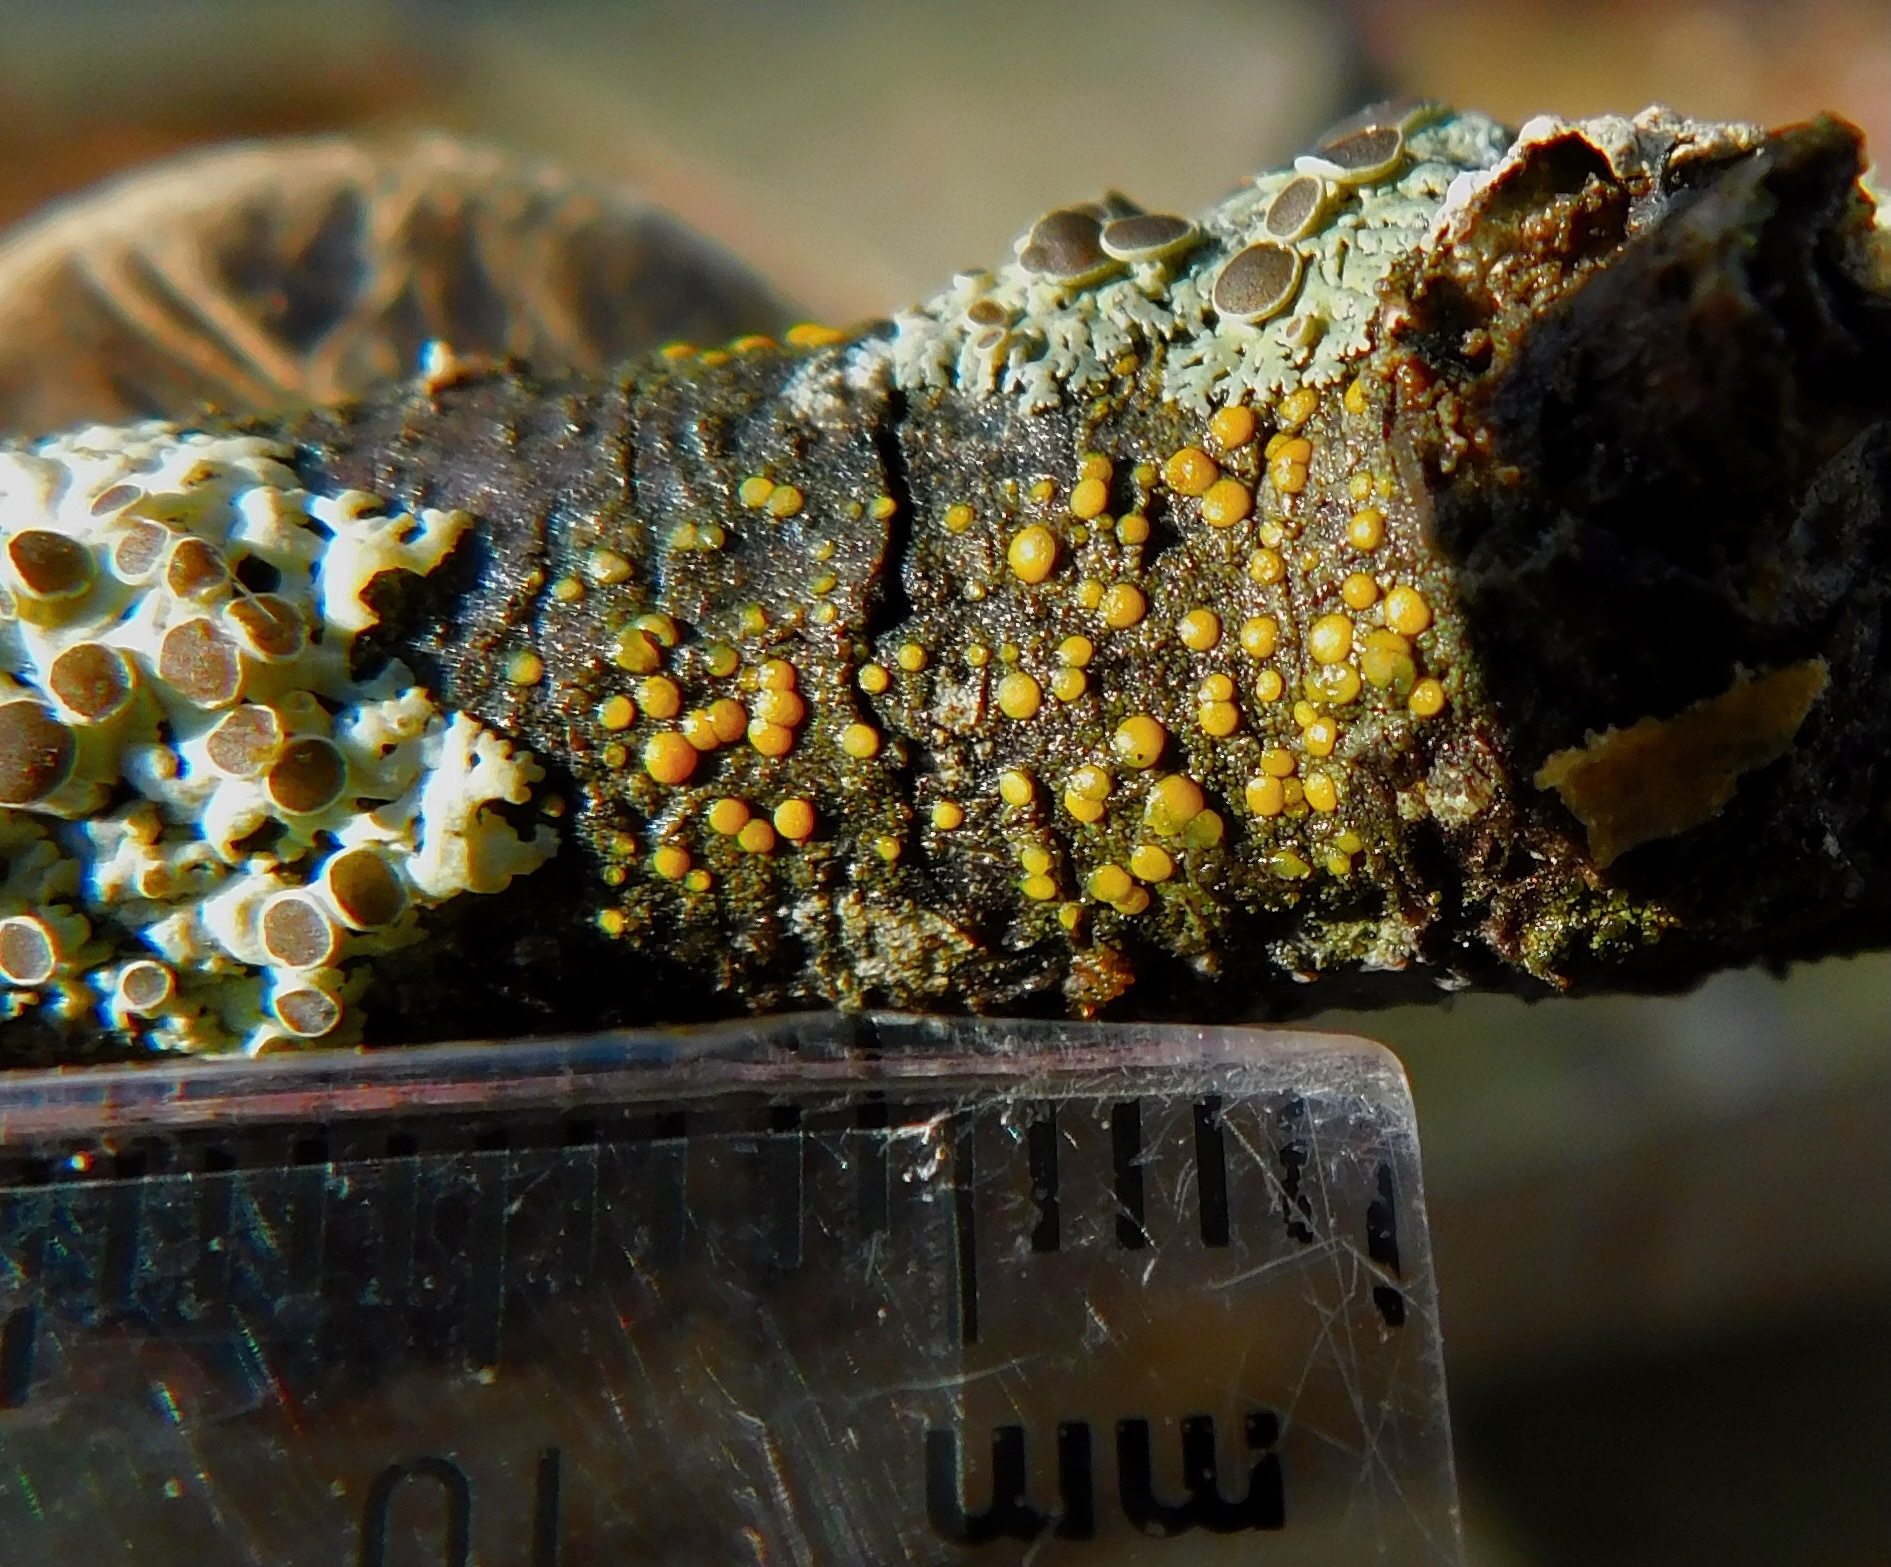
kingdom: Fungi
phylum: Ascomycota
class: Lecanoromycetes
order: Teloschistales
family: Teloschistaceae
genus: Caloplaca
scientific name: Caloplaca cerina
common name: Gray-rimmed firedot lichen
